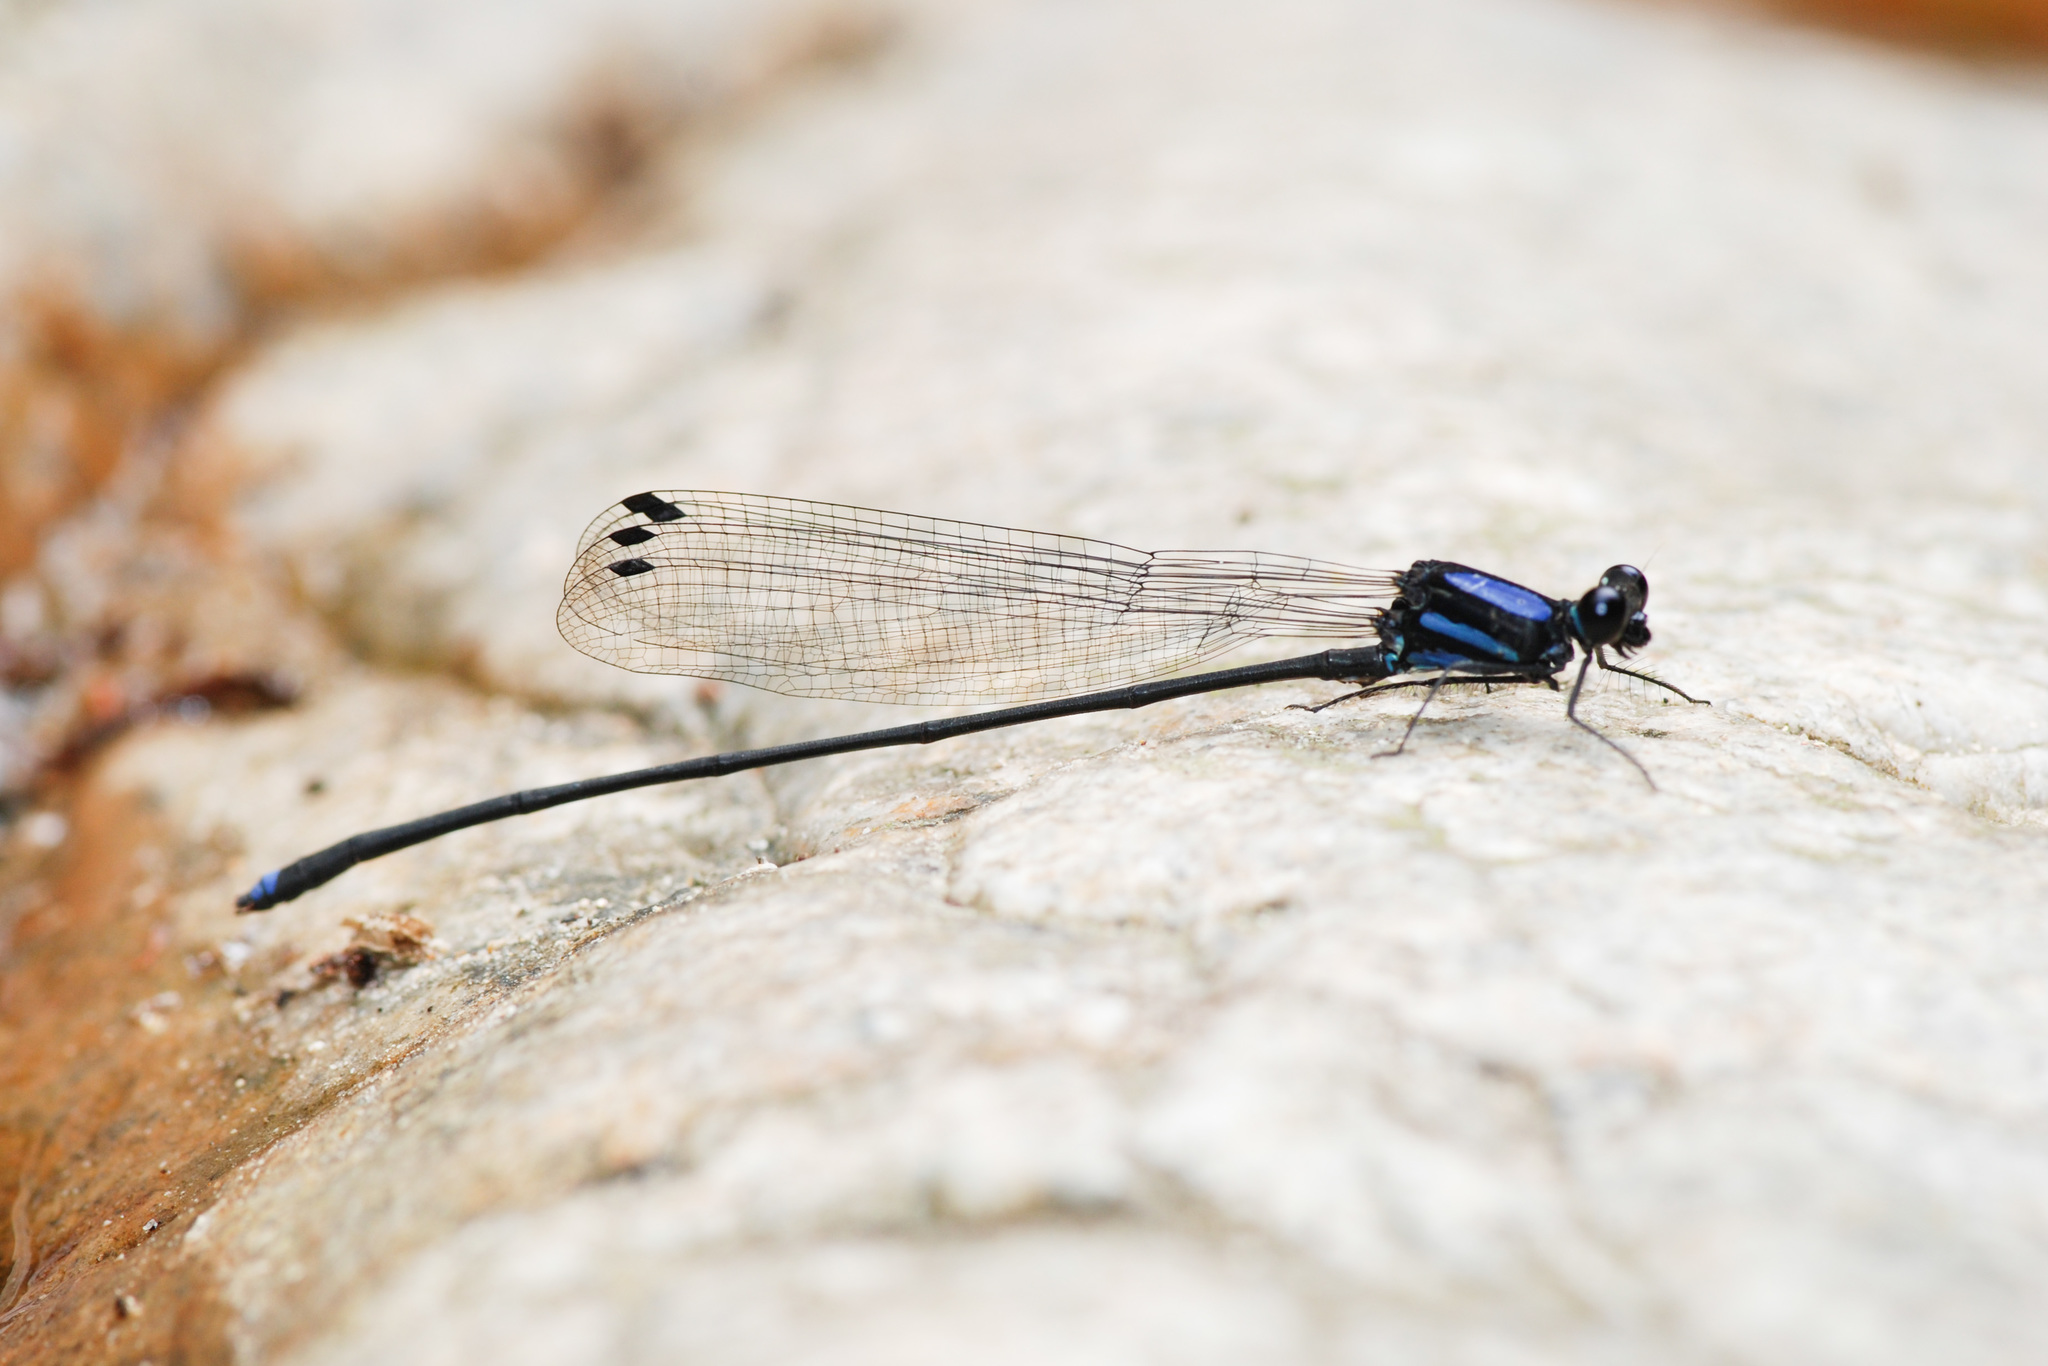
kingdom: Animalia
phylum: Arthropoda
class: Insecta
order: Odonata
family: Platycnemididae
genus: Indocnemis
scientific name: Indocnemis orang
